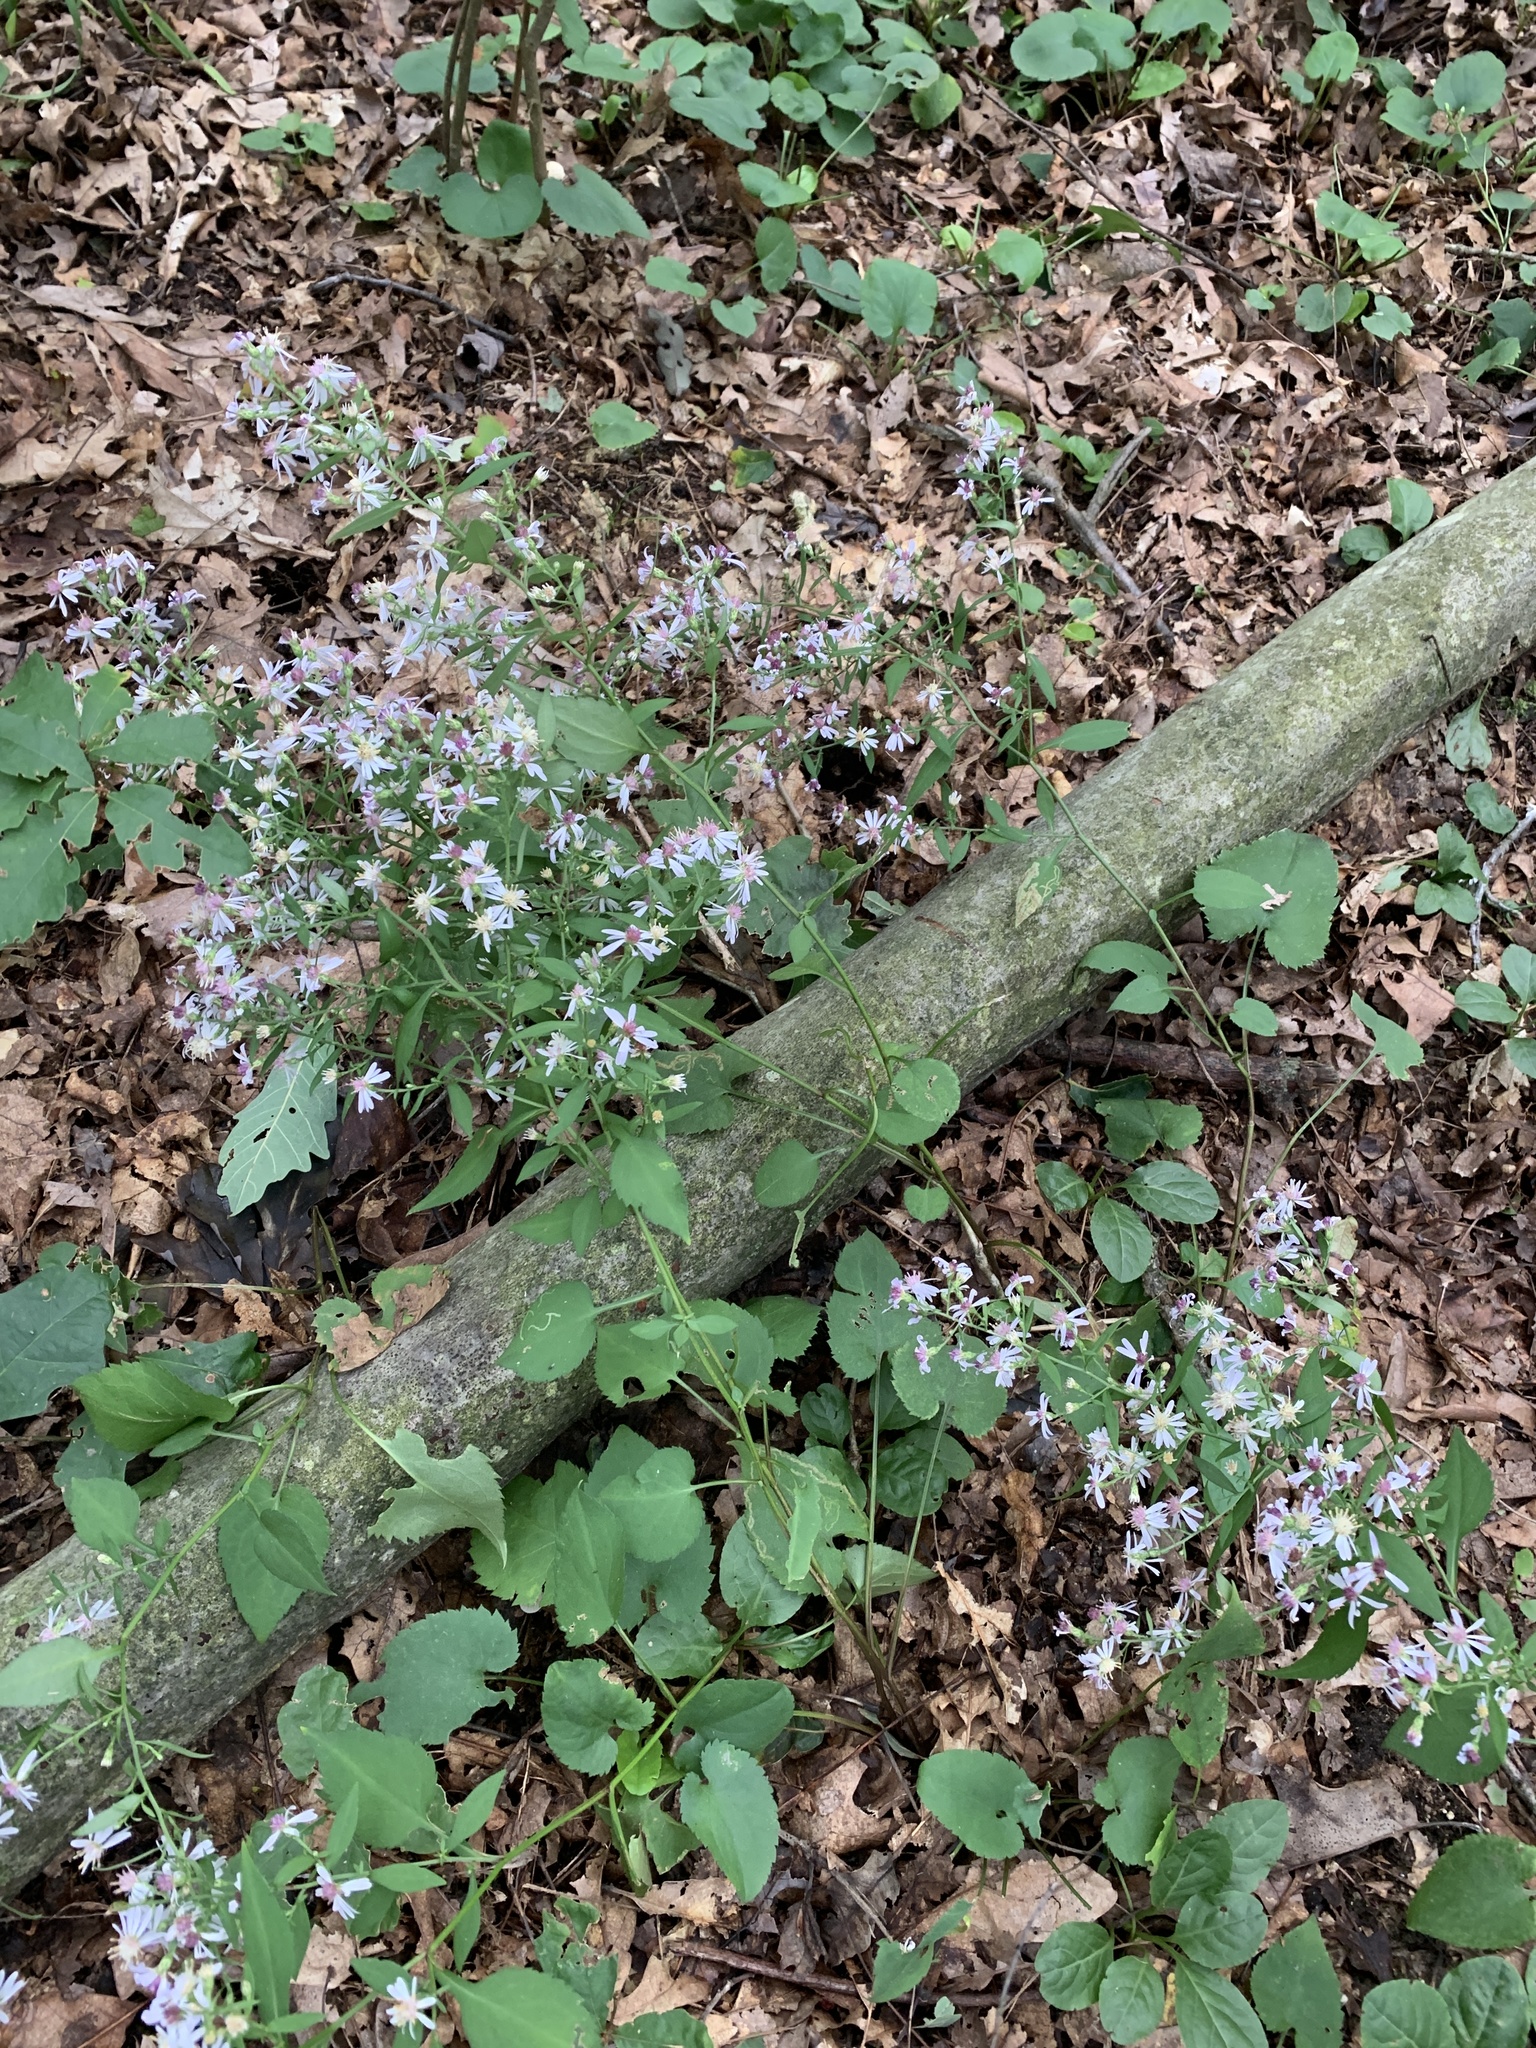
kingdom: Plantae
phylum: Tracheophyta
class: Magnoliopsida
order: Asterales
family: Asteraceae
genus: Symphyotrichum
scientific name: Symphyotrichum cordifolium
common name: Beeweed
